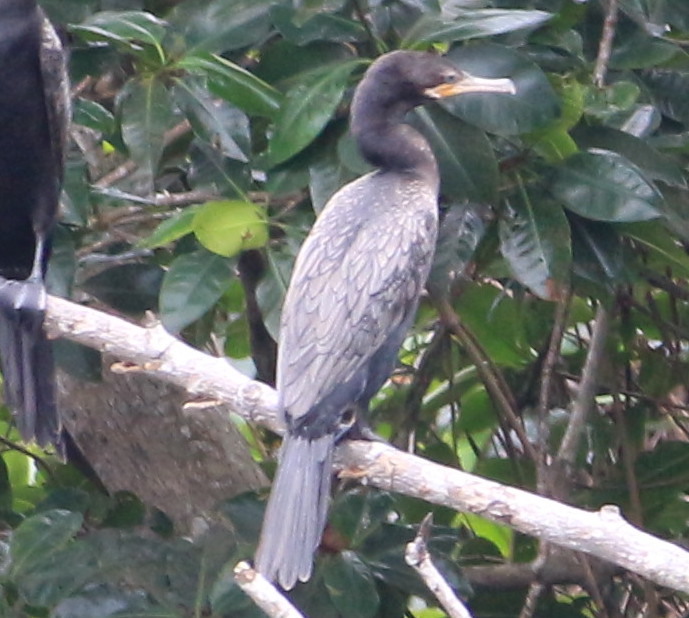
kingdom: Animalia
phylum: Chordata
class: Aves
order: Suliformes
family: Phalacrocoracidae
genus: Phalacrocorax
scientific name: Phalacrocorax brasilianus
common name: Neotropic cormorant
